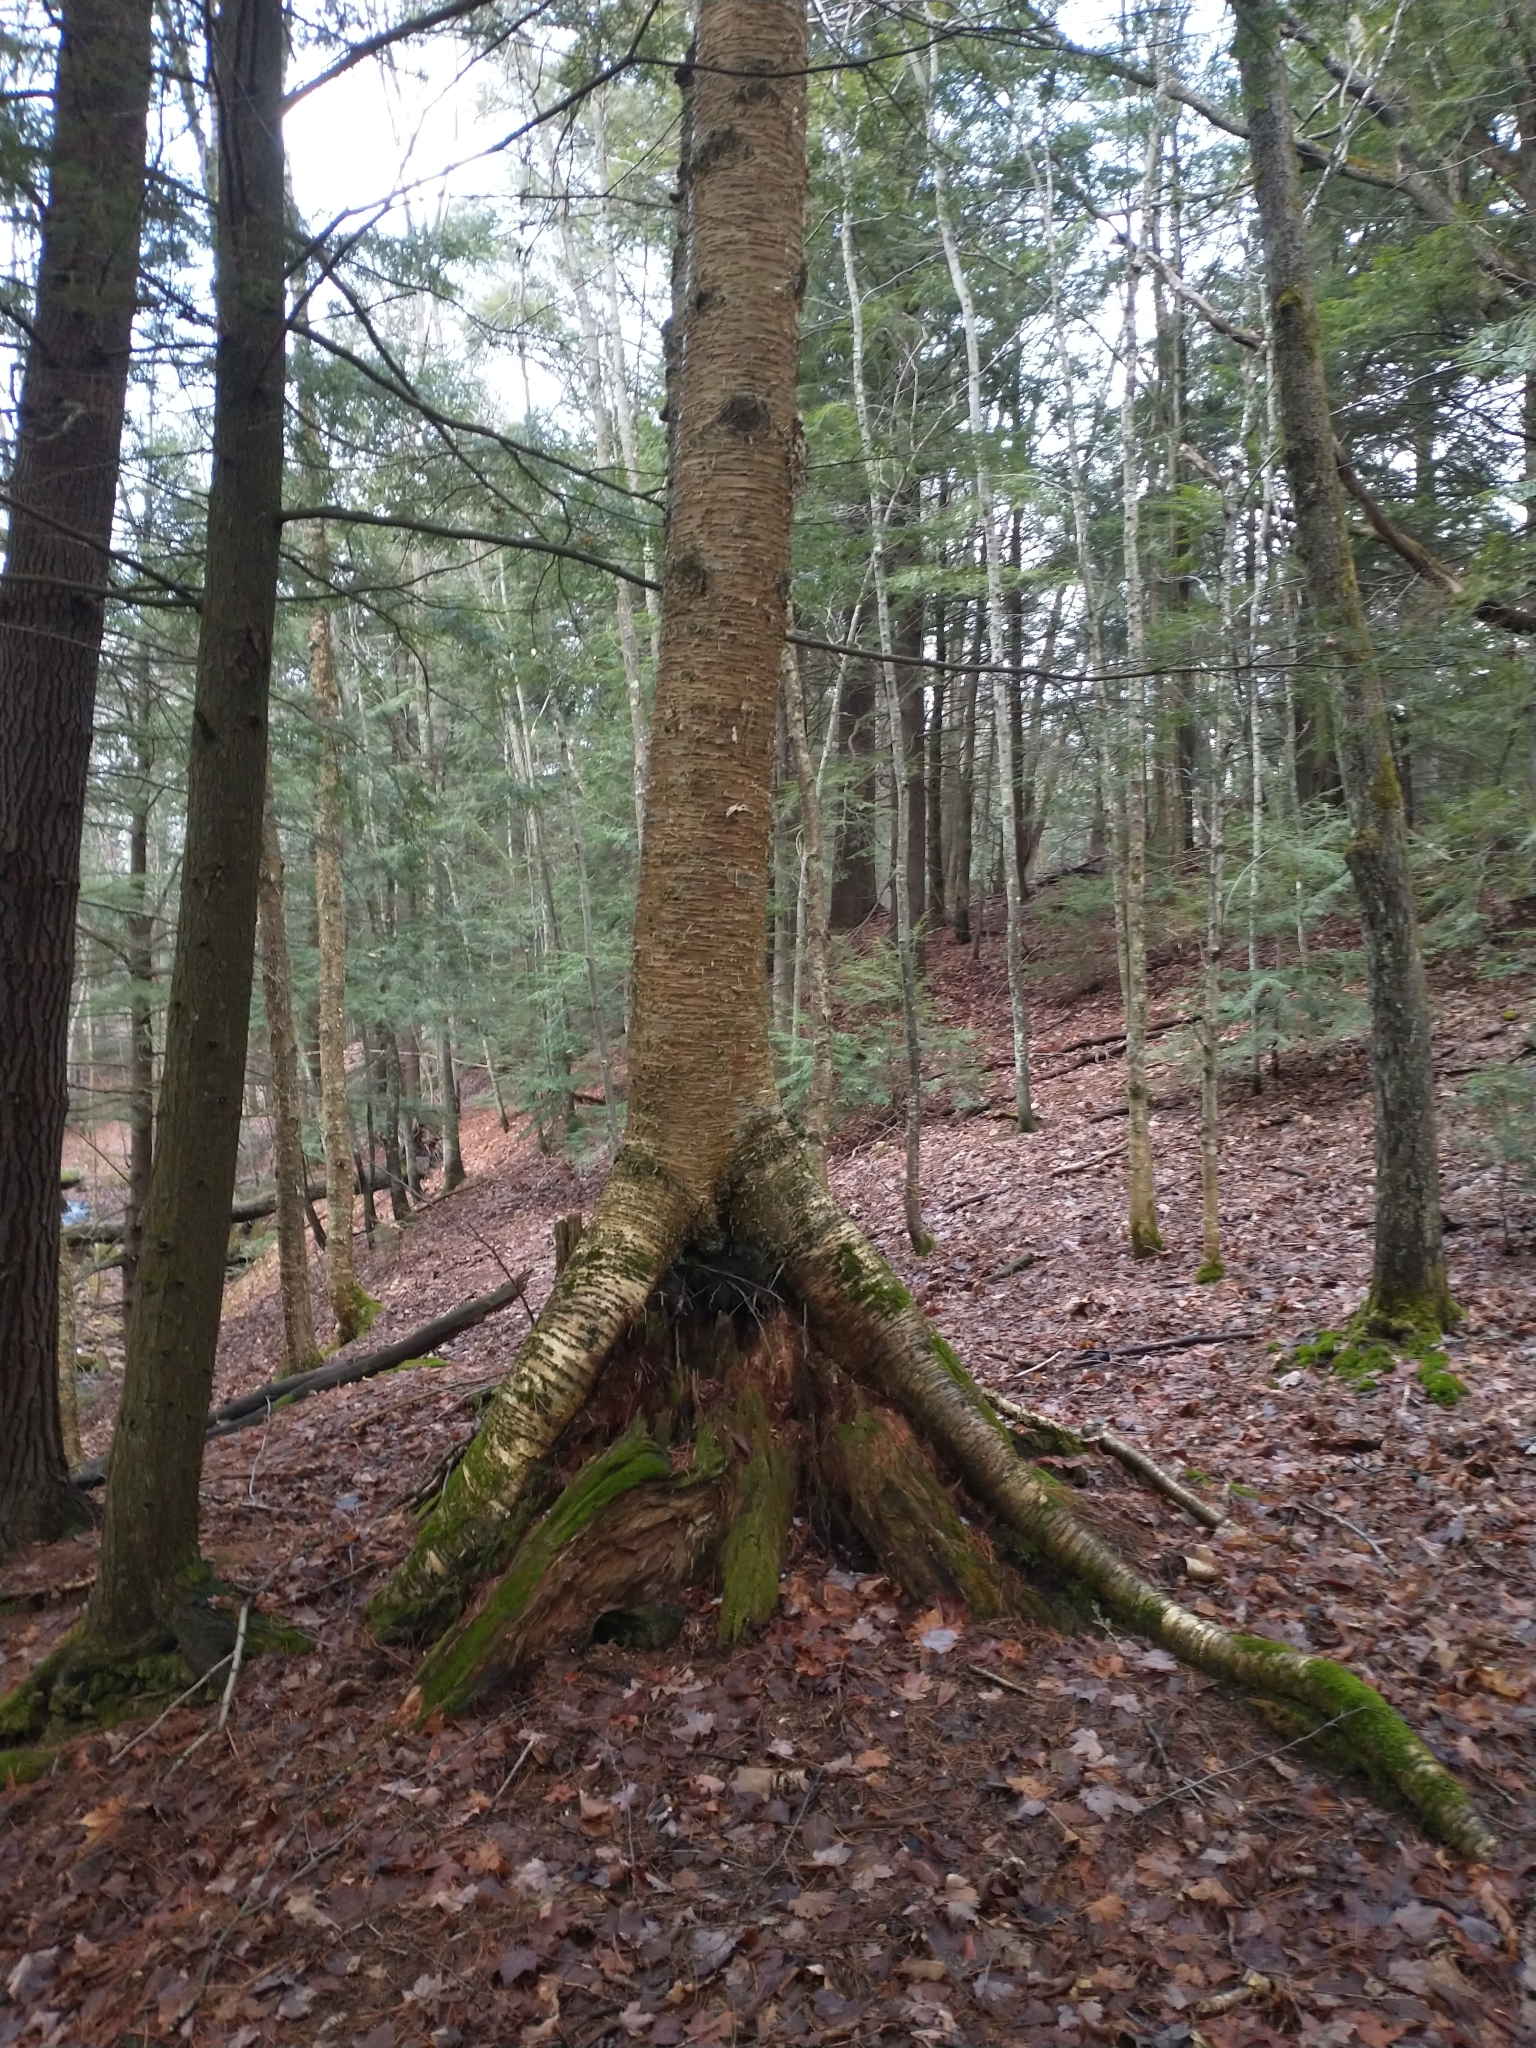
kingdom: Plantae
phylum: Tracheophyta
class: Magnoliopsida
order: Fagales
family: Betulaceae
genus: Betula
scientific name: Betula alleghaniensis
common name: Yellow birch
